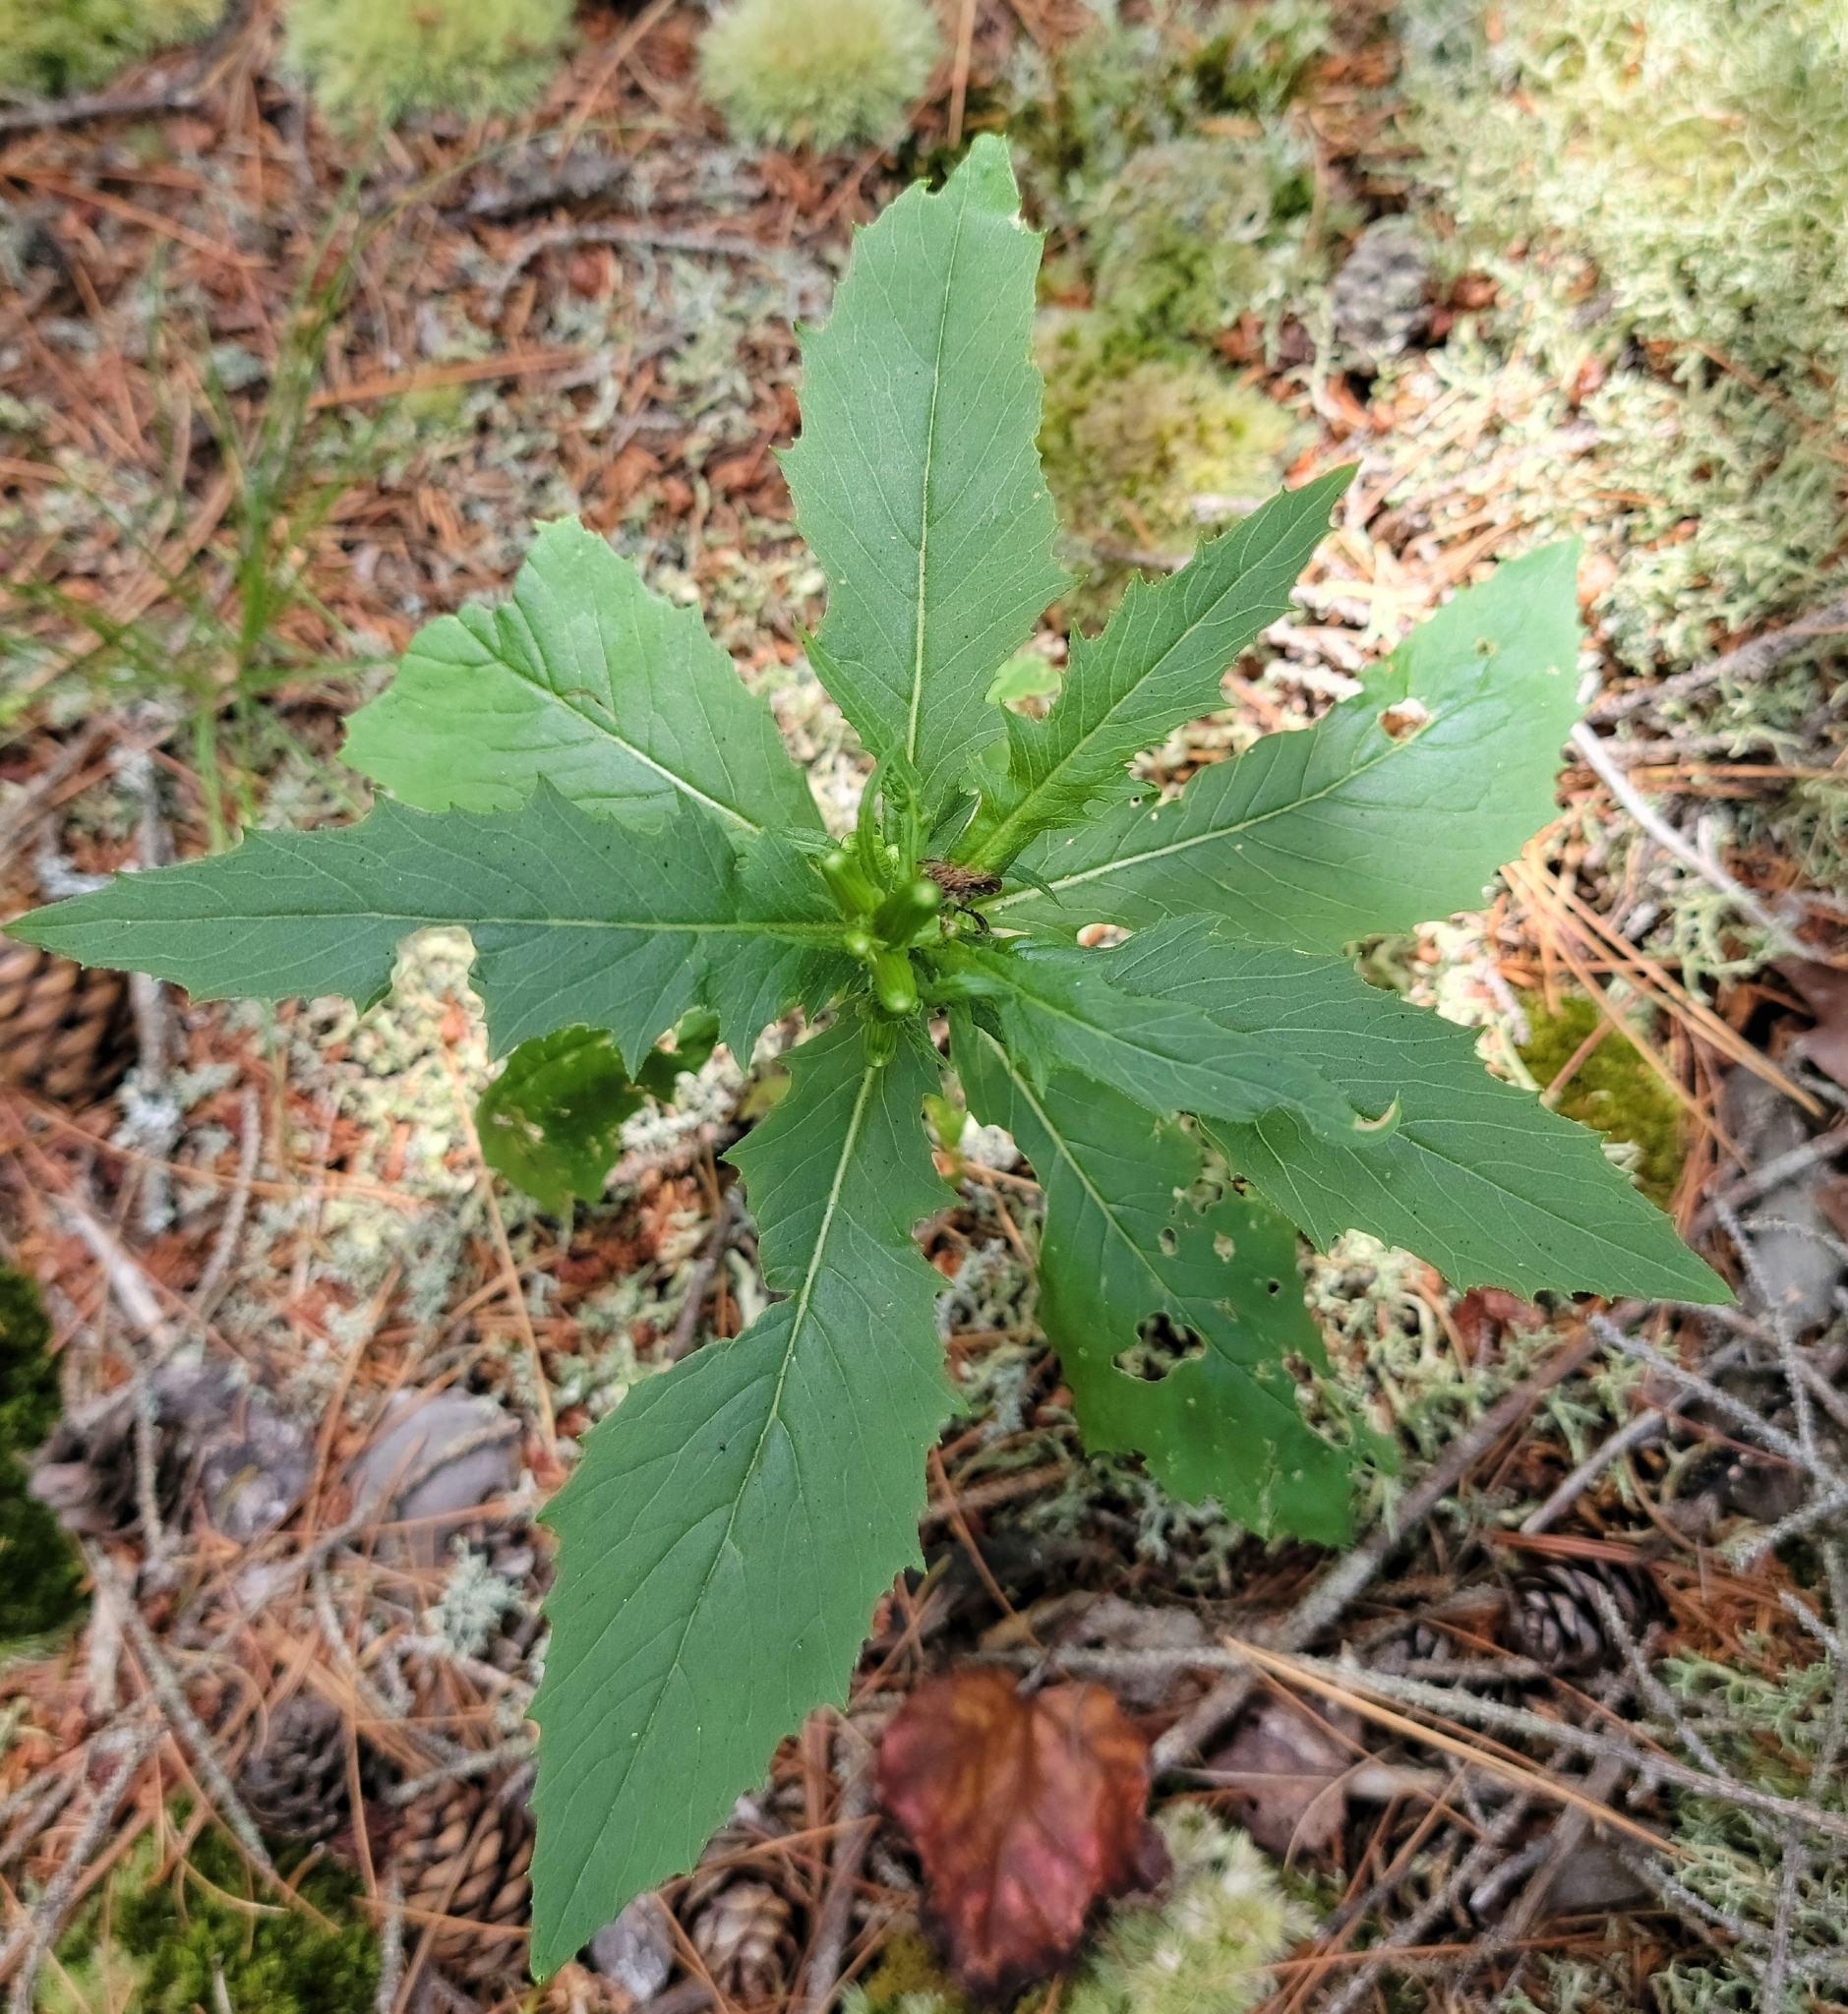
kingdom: Plantae
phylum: Tracheophyta
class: Magnoliopsida
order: Asterales
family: Asteraceae
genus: Erechtites
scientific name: Erechtites hieraciifolius
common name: American burnweed
